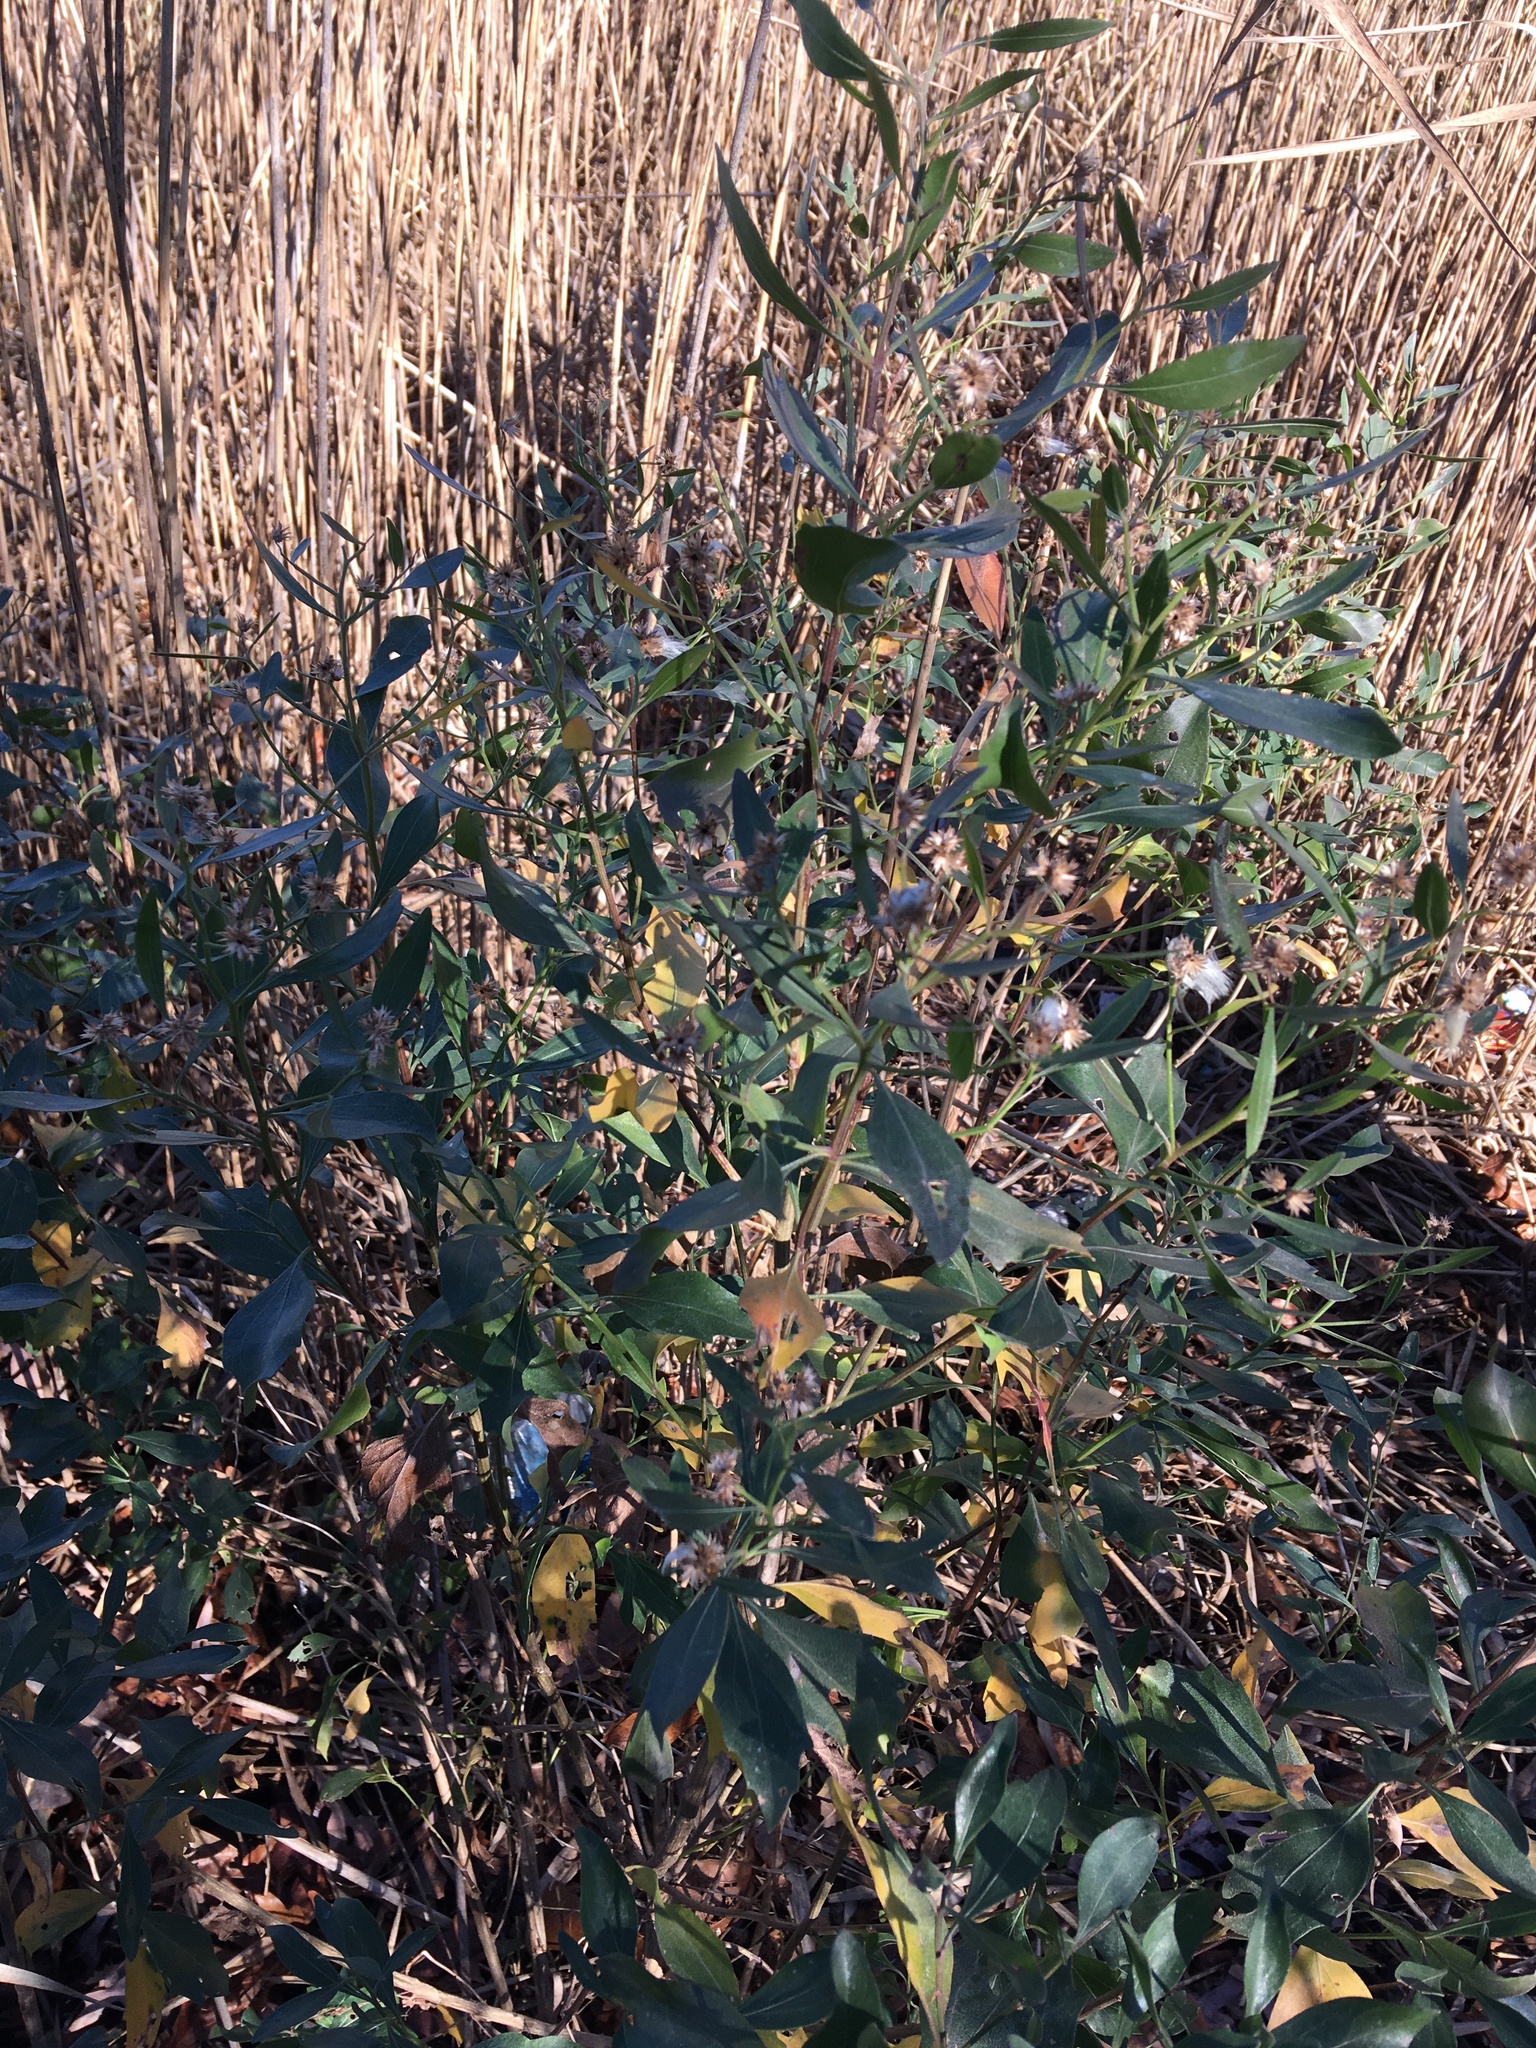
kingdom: Plantae
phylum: Tracheophyta
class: Magnoliopsida
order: Asterales
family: Asteraceae
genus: Baccharis
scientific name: Baccharis halimifolia
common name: Eastern baccharis
